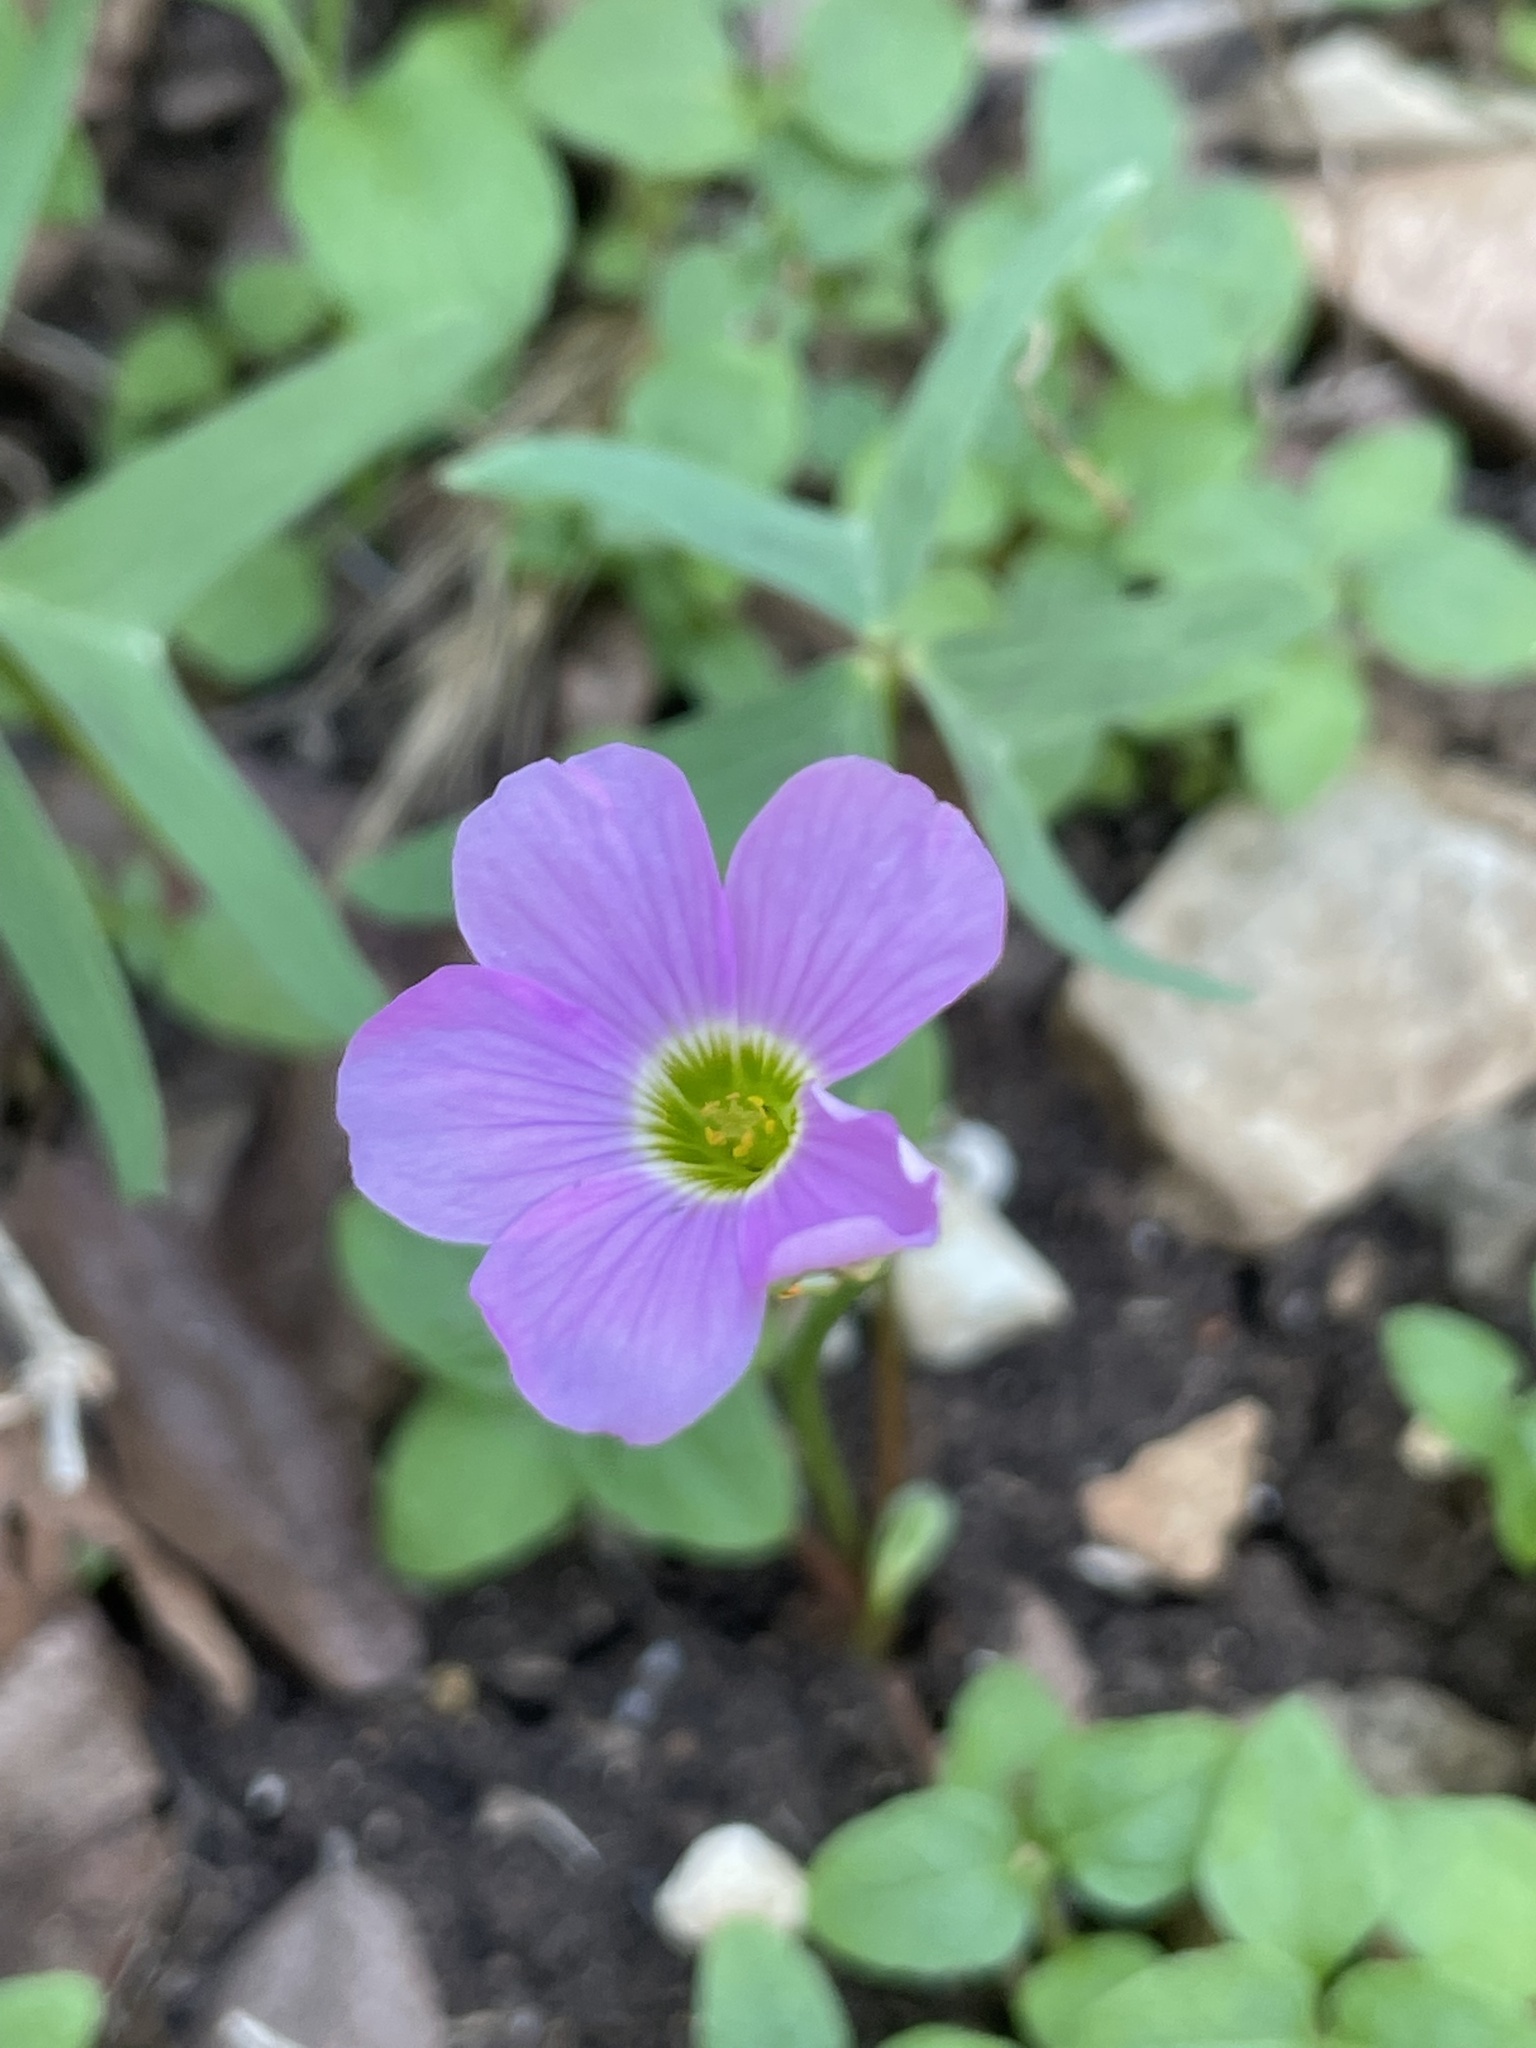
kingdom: Plantae
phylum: Tracheophyta
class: Magnoliopsida
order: Oxalidales
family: Oxalidaceae
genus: Oxalis
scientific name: Oxalis drummondii
